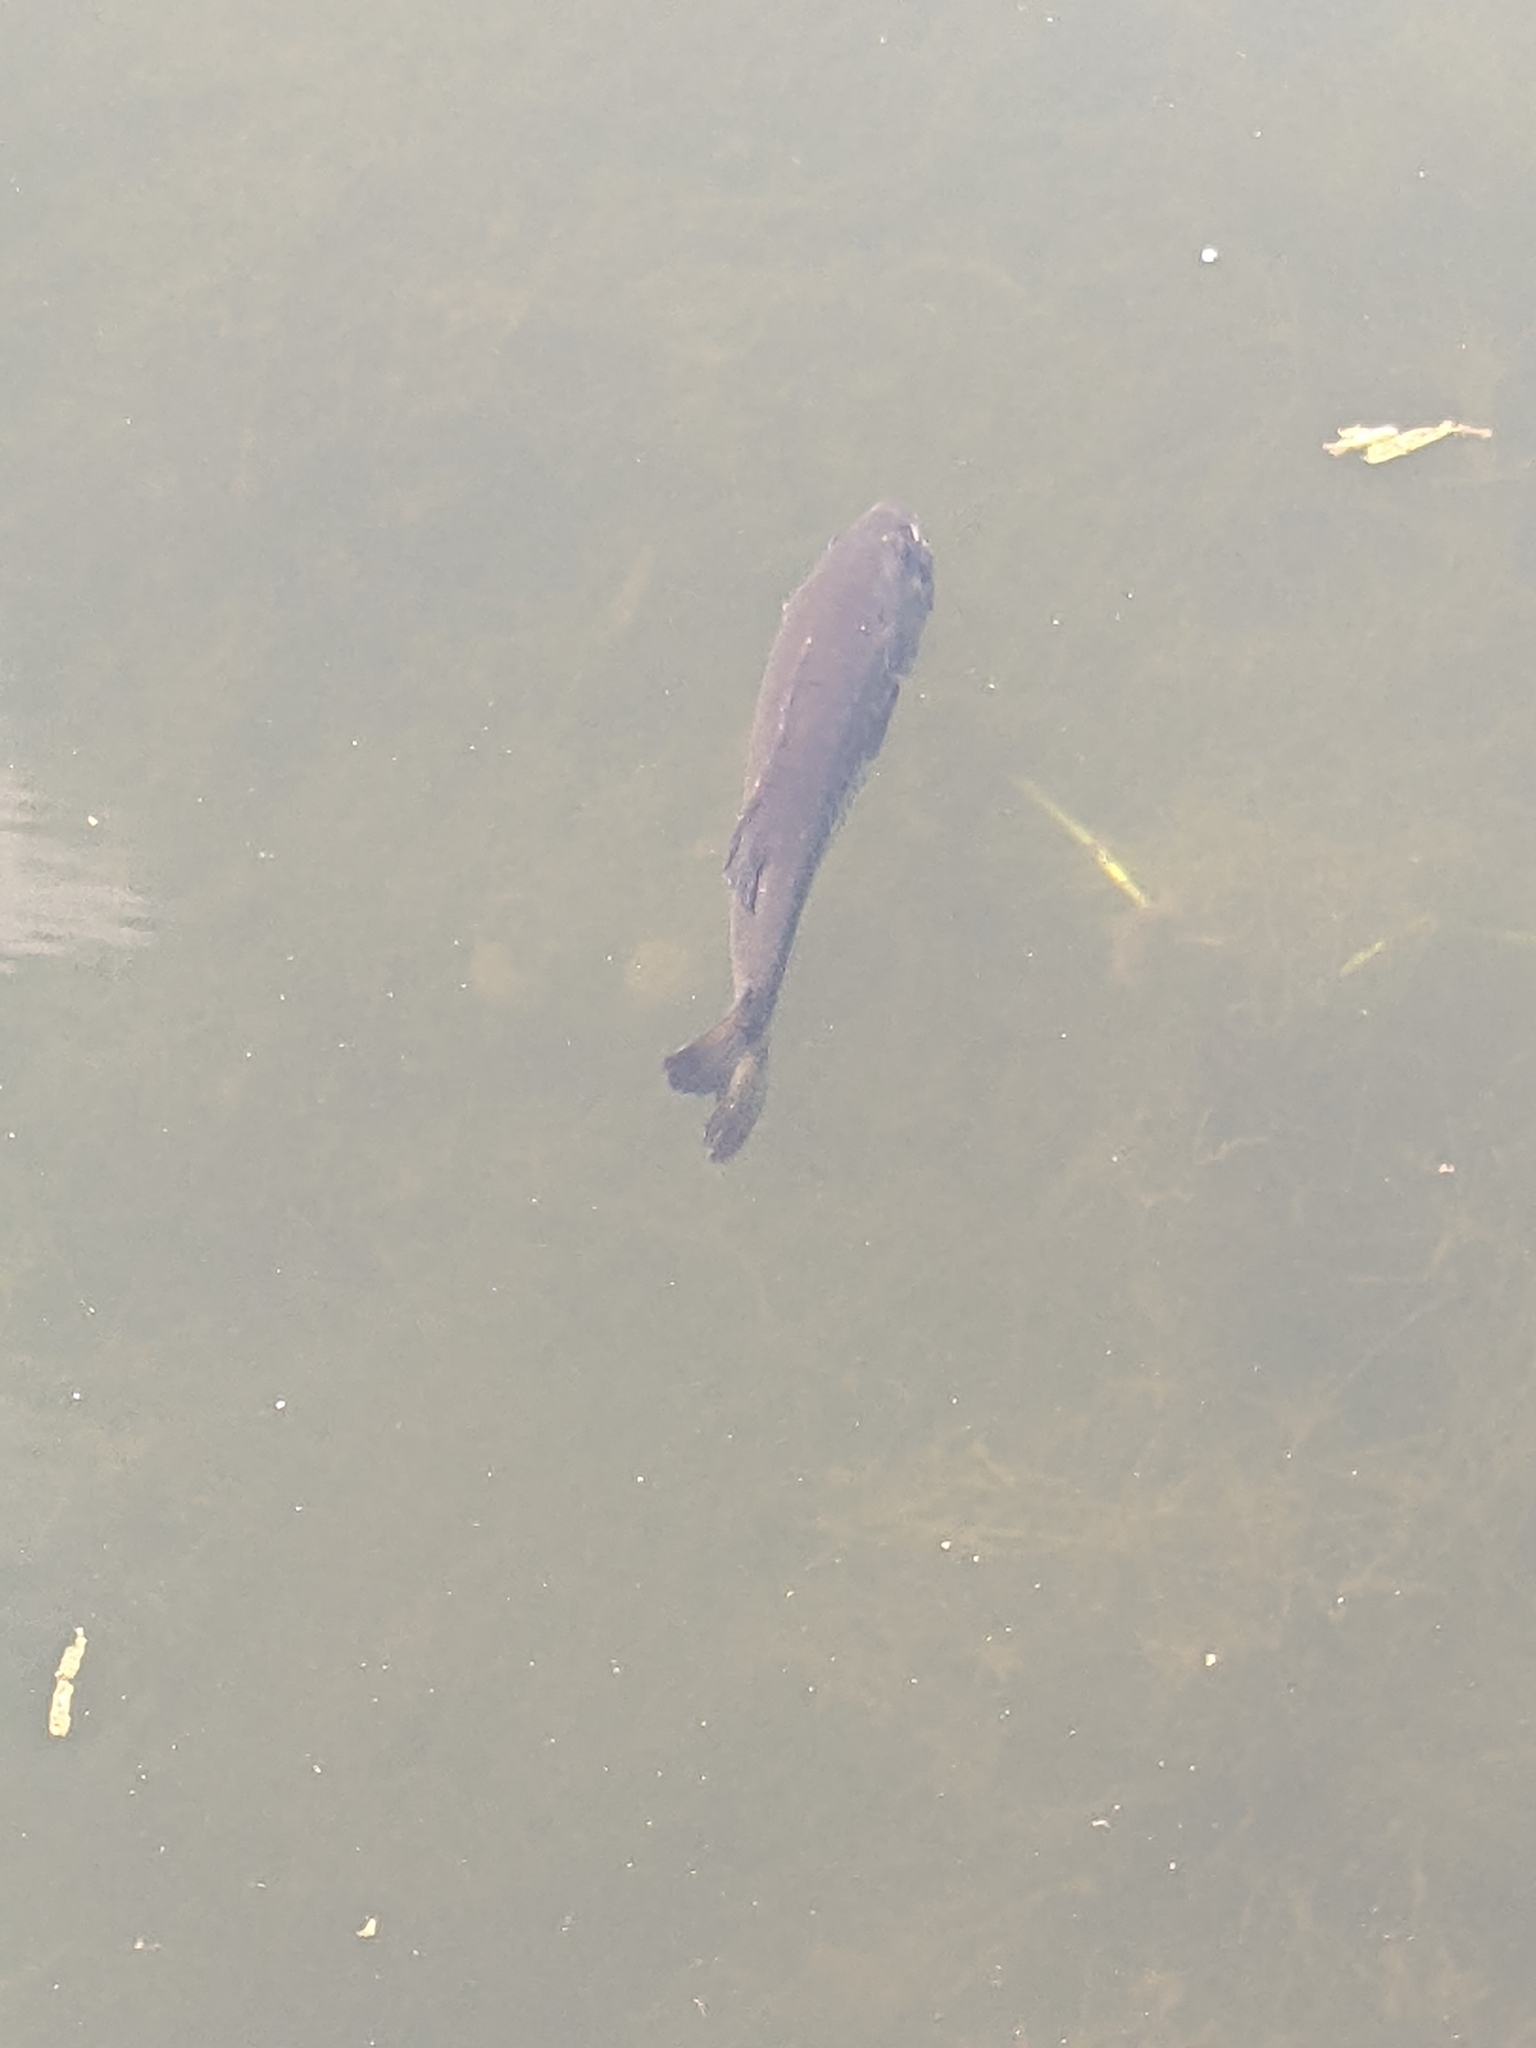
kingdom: Animalia
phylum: Chordata
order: Perciformes
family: Centrarchidae
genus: Micropterus
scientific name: Micropterus salmoides
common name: Largemouth bass
